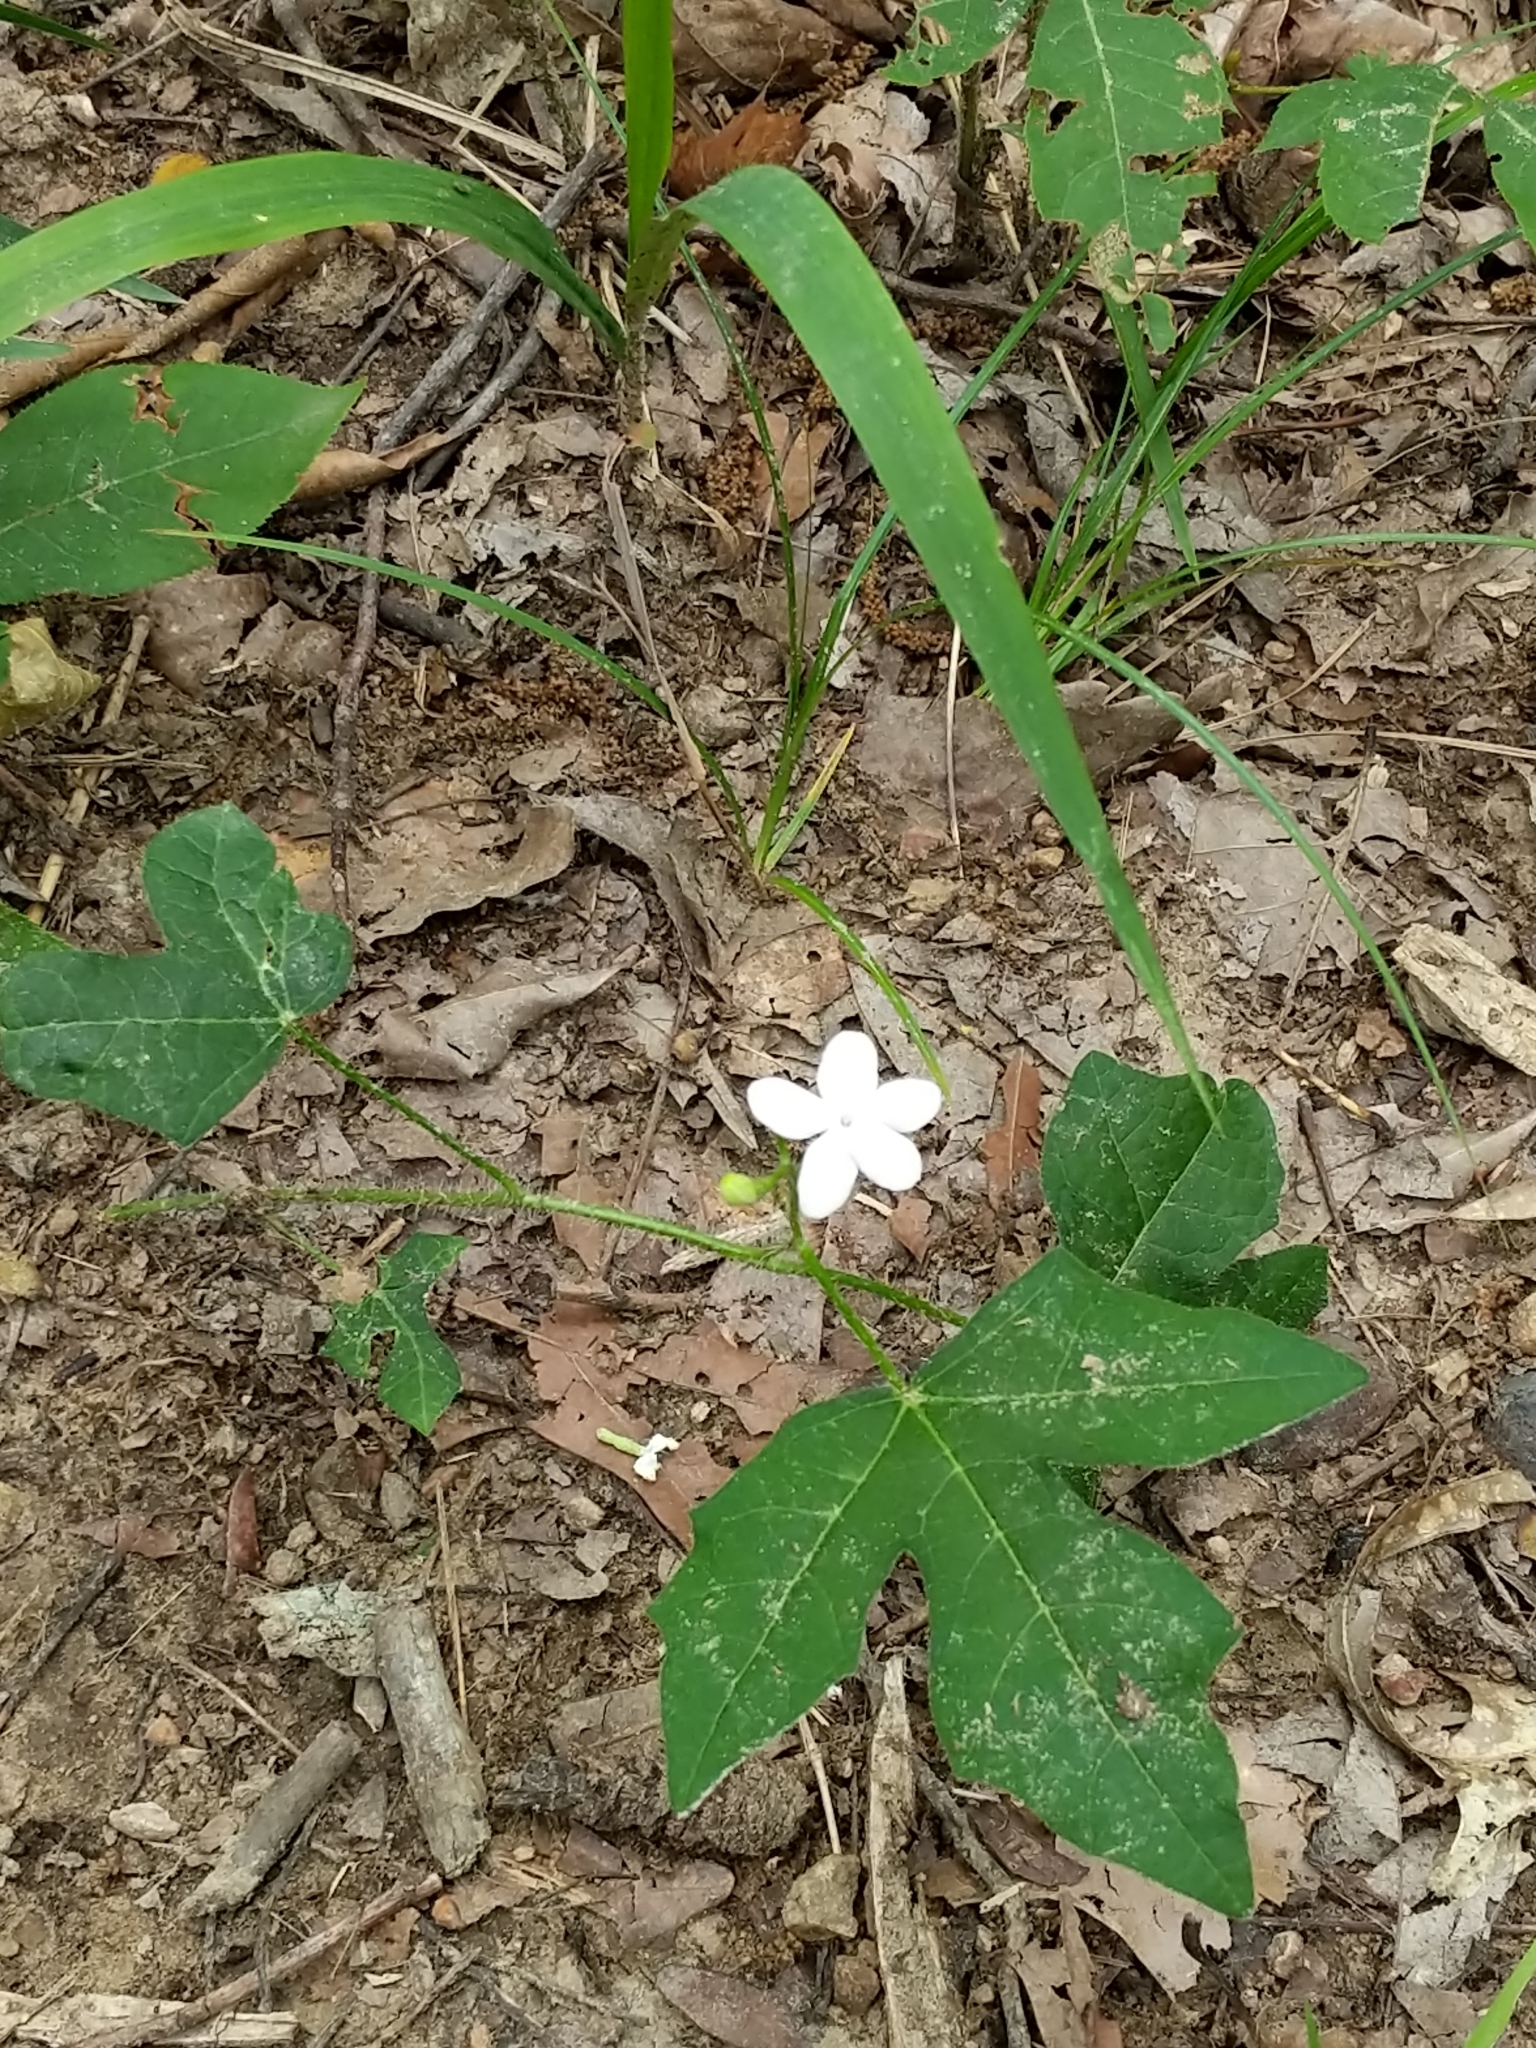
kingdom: Plantae
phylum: Tracheophyta
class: Magnoliopsida
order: Malpighiales
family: Euphorbiaceae
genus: Cnidoscolus
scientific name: Cnidoscolus stimulosus
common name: Bull-nettle
